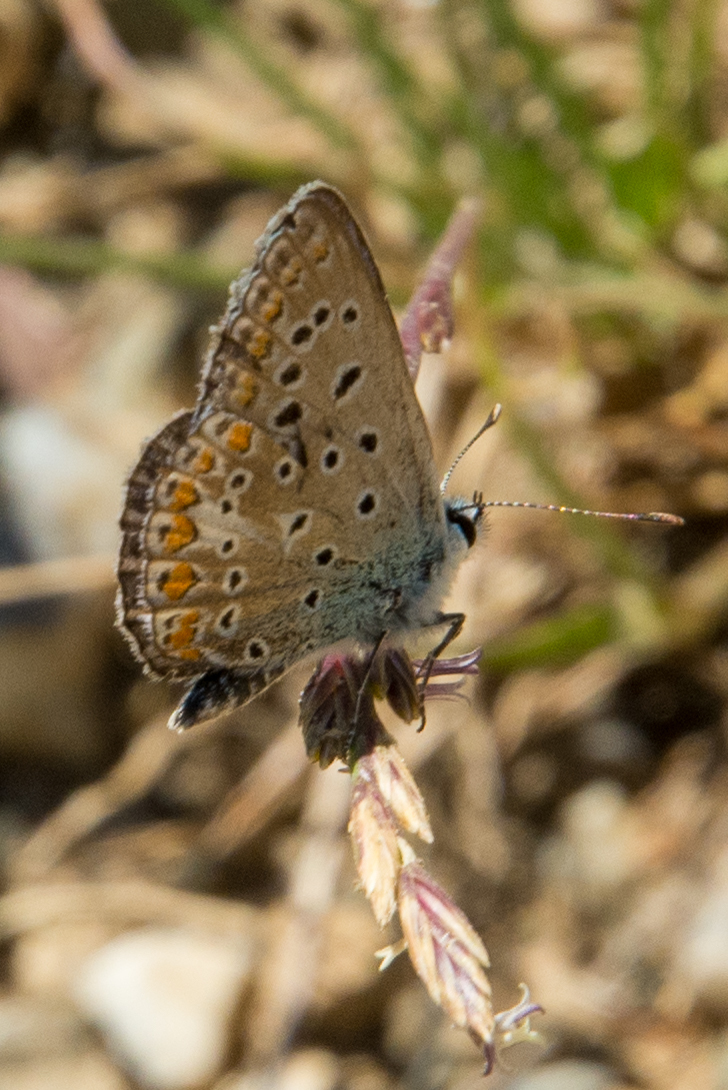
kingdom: Animalia
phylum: Arthropoda
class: Insecta
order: Lepidoptera
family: Lycaenidae
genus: Polyommatus
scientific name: Polyommatus celina
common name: Austaut's blue
